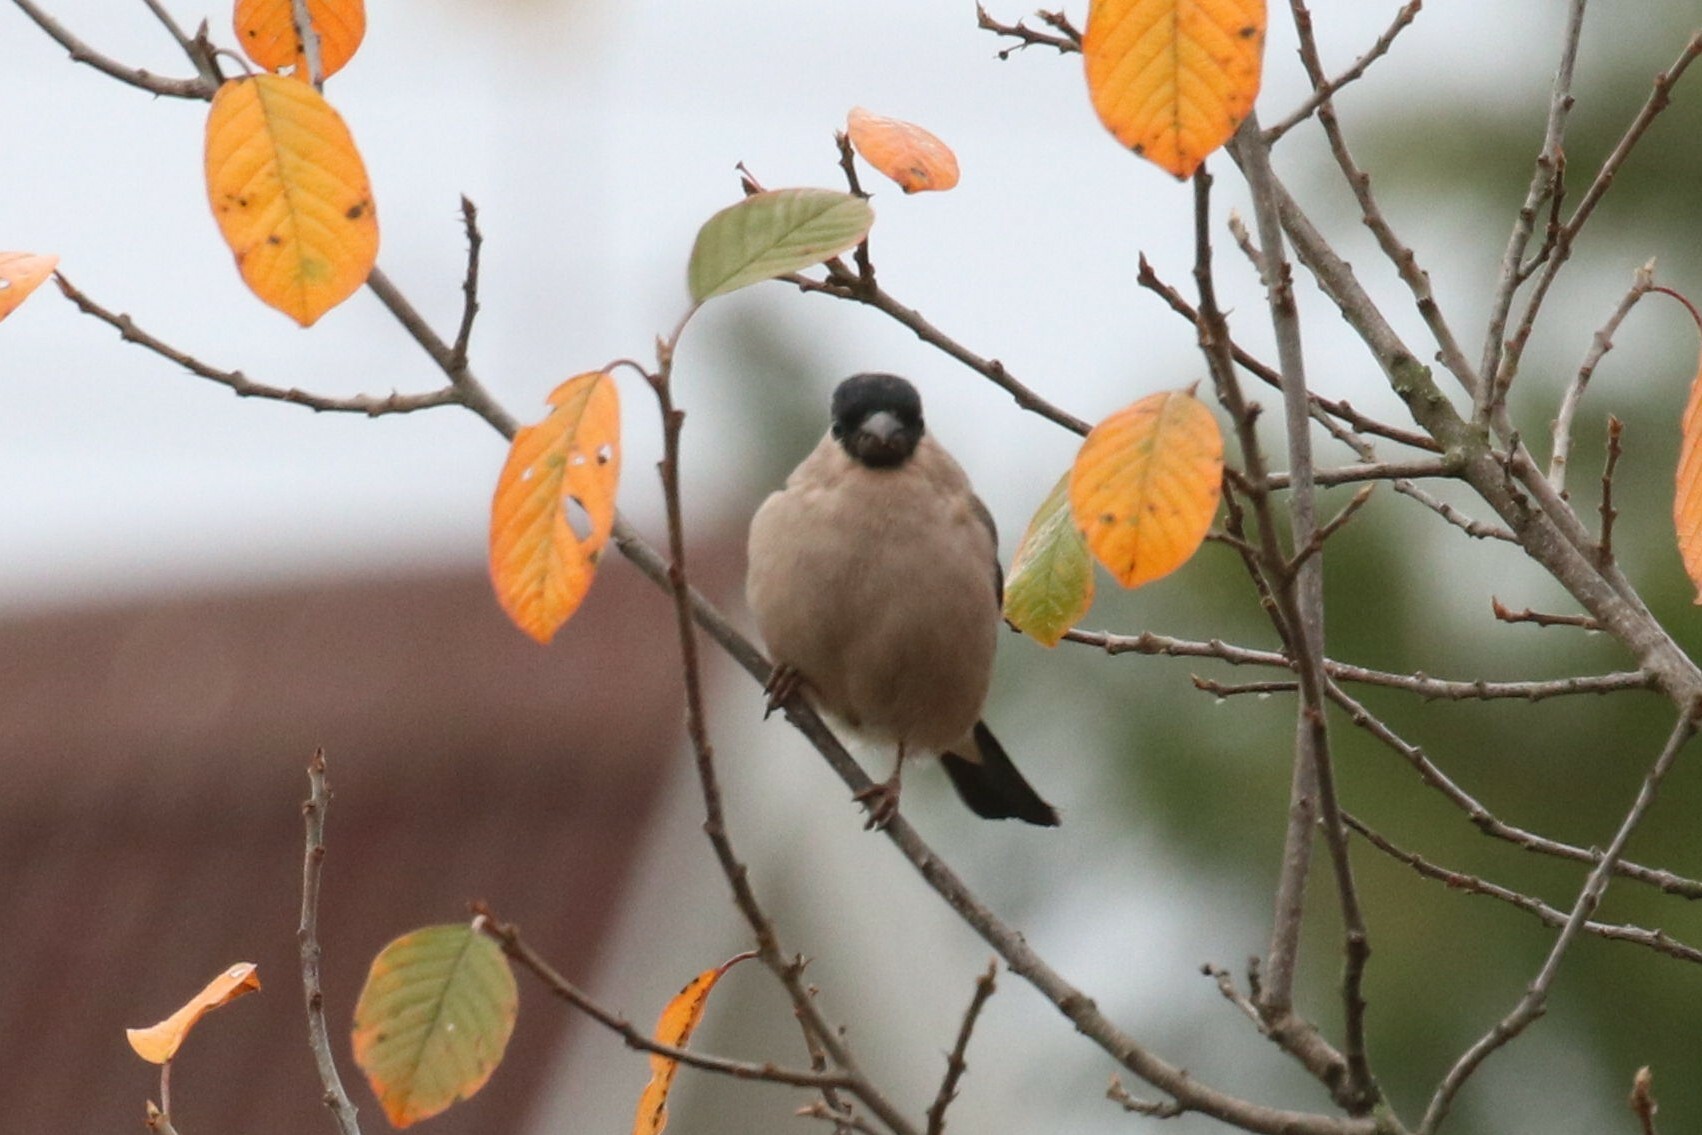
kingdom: Animalia
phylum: Chordata
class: Aves
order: Passeriformes
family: Fringillidae
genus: Pyrrhula
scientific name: Pyrrhula pyrrhula
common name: Eurasian bullfinch
